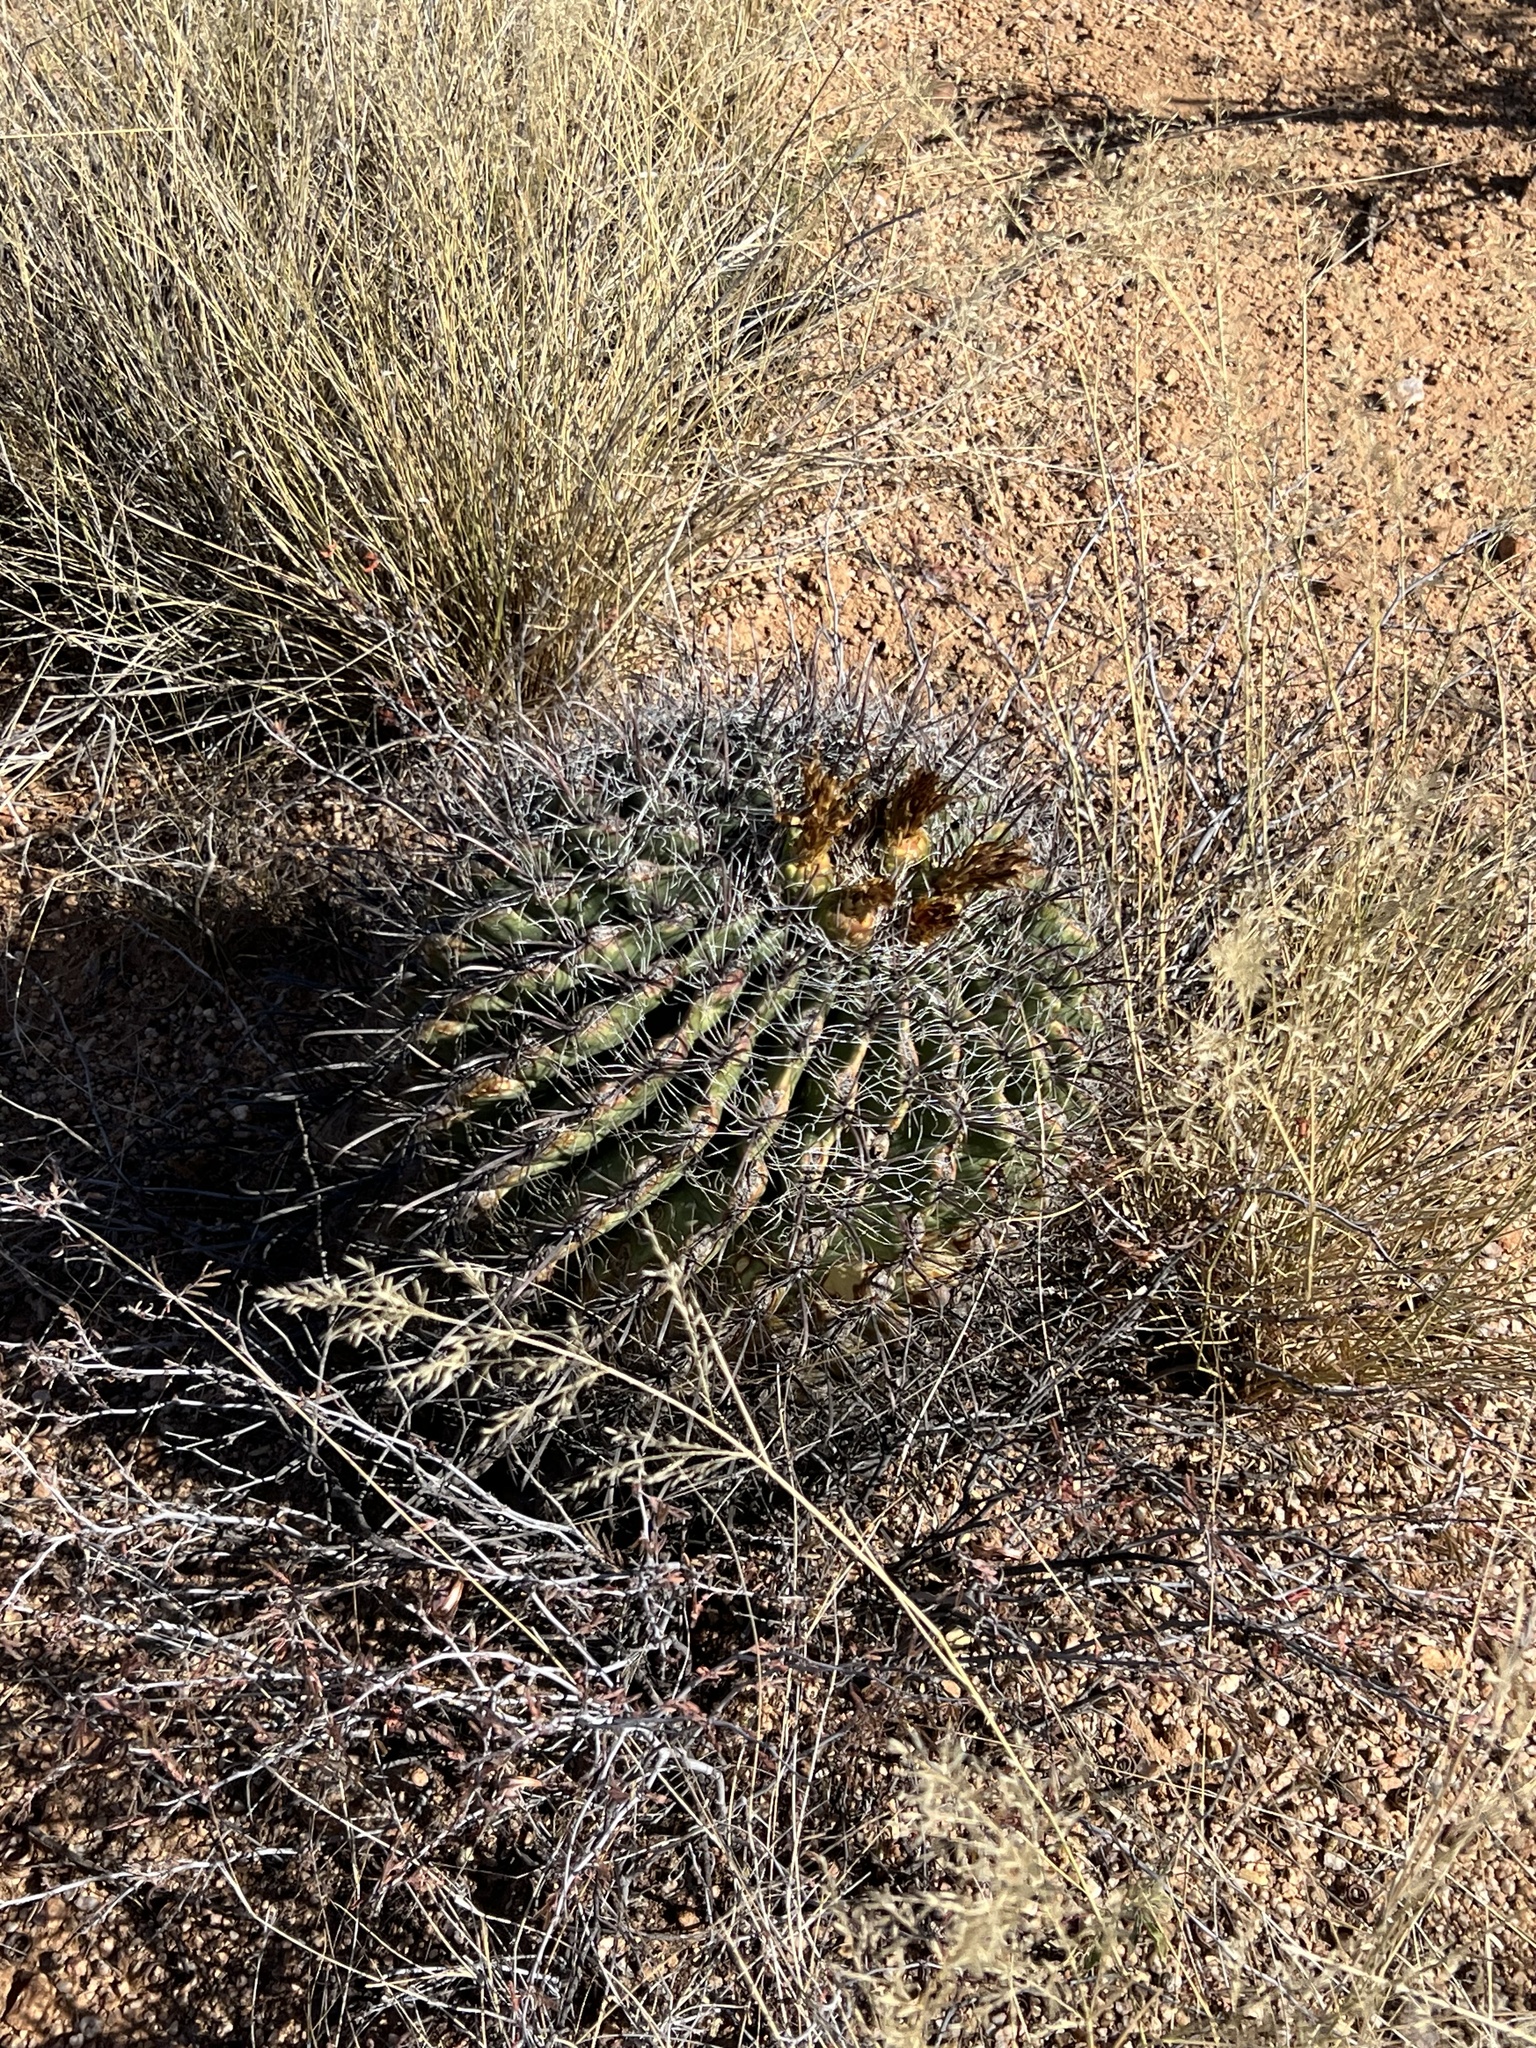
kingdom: Plantae
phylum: Tracheophyta
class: Magnoliopsida
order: Caryophyllales
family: Cactaceae
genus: Ferocactus
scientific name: Ferocactus wislizeni
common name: Candy barrel cactus
